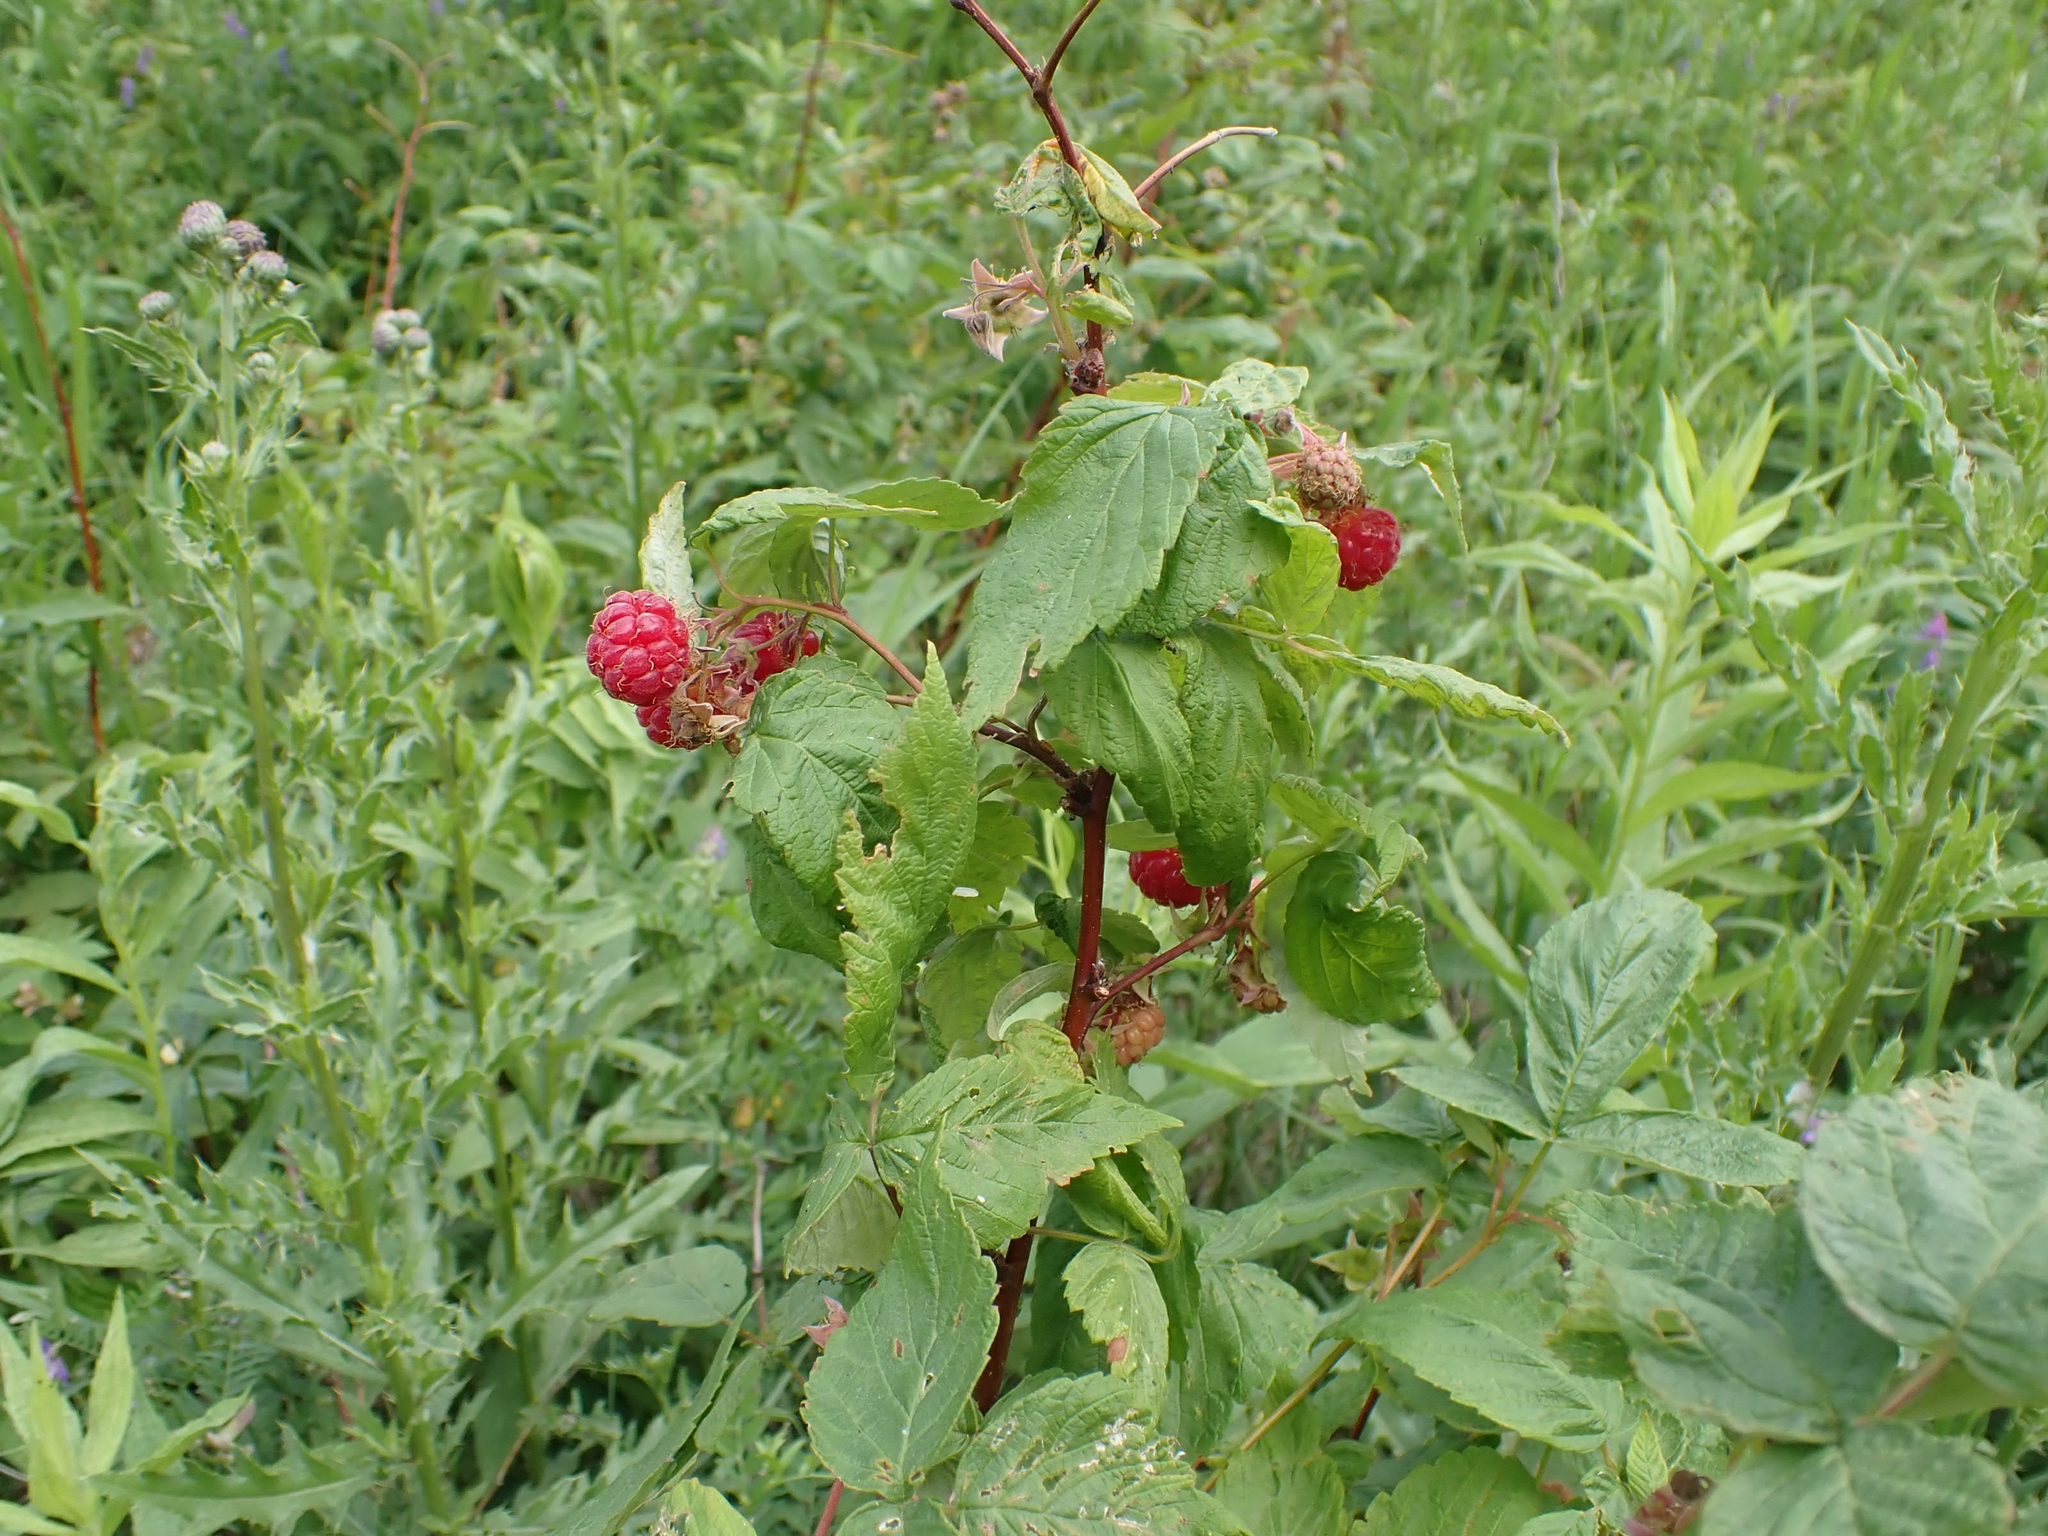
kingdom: Plantae
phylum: Tracheophyta
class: Magnoliopsida
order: Rosales
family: Rosaceae
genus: Rubus
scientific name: Rubus idaeus
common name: Raspberry
